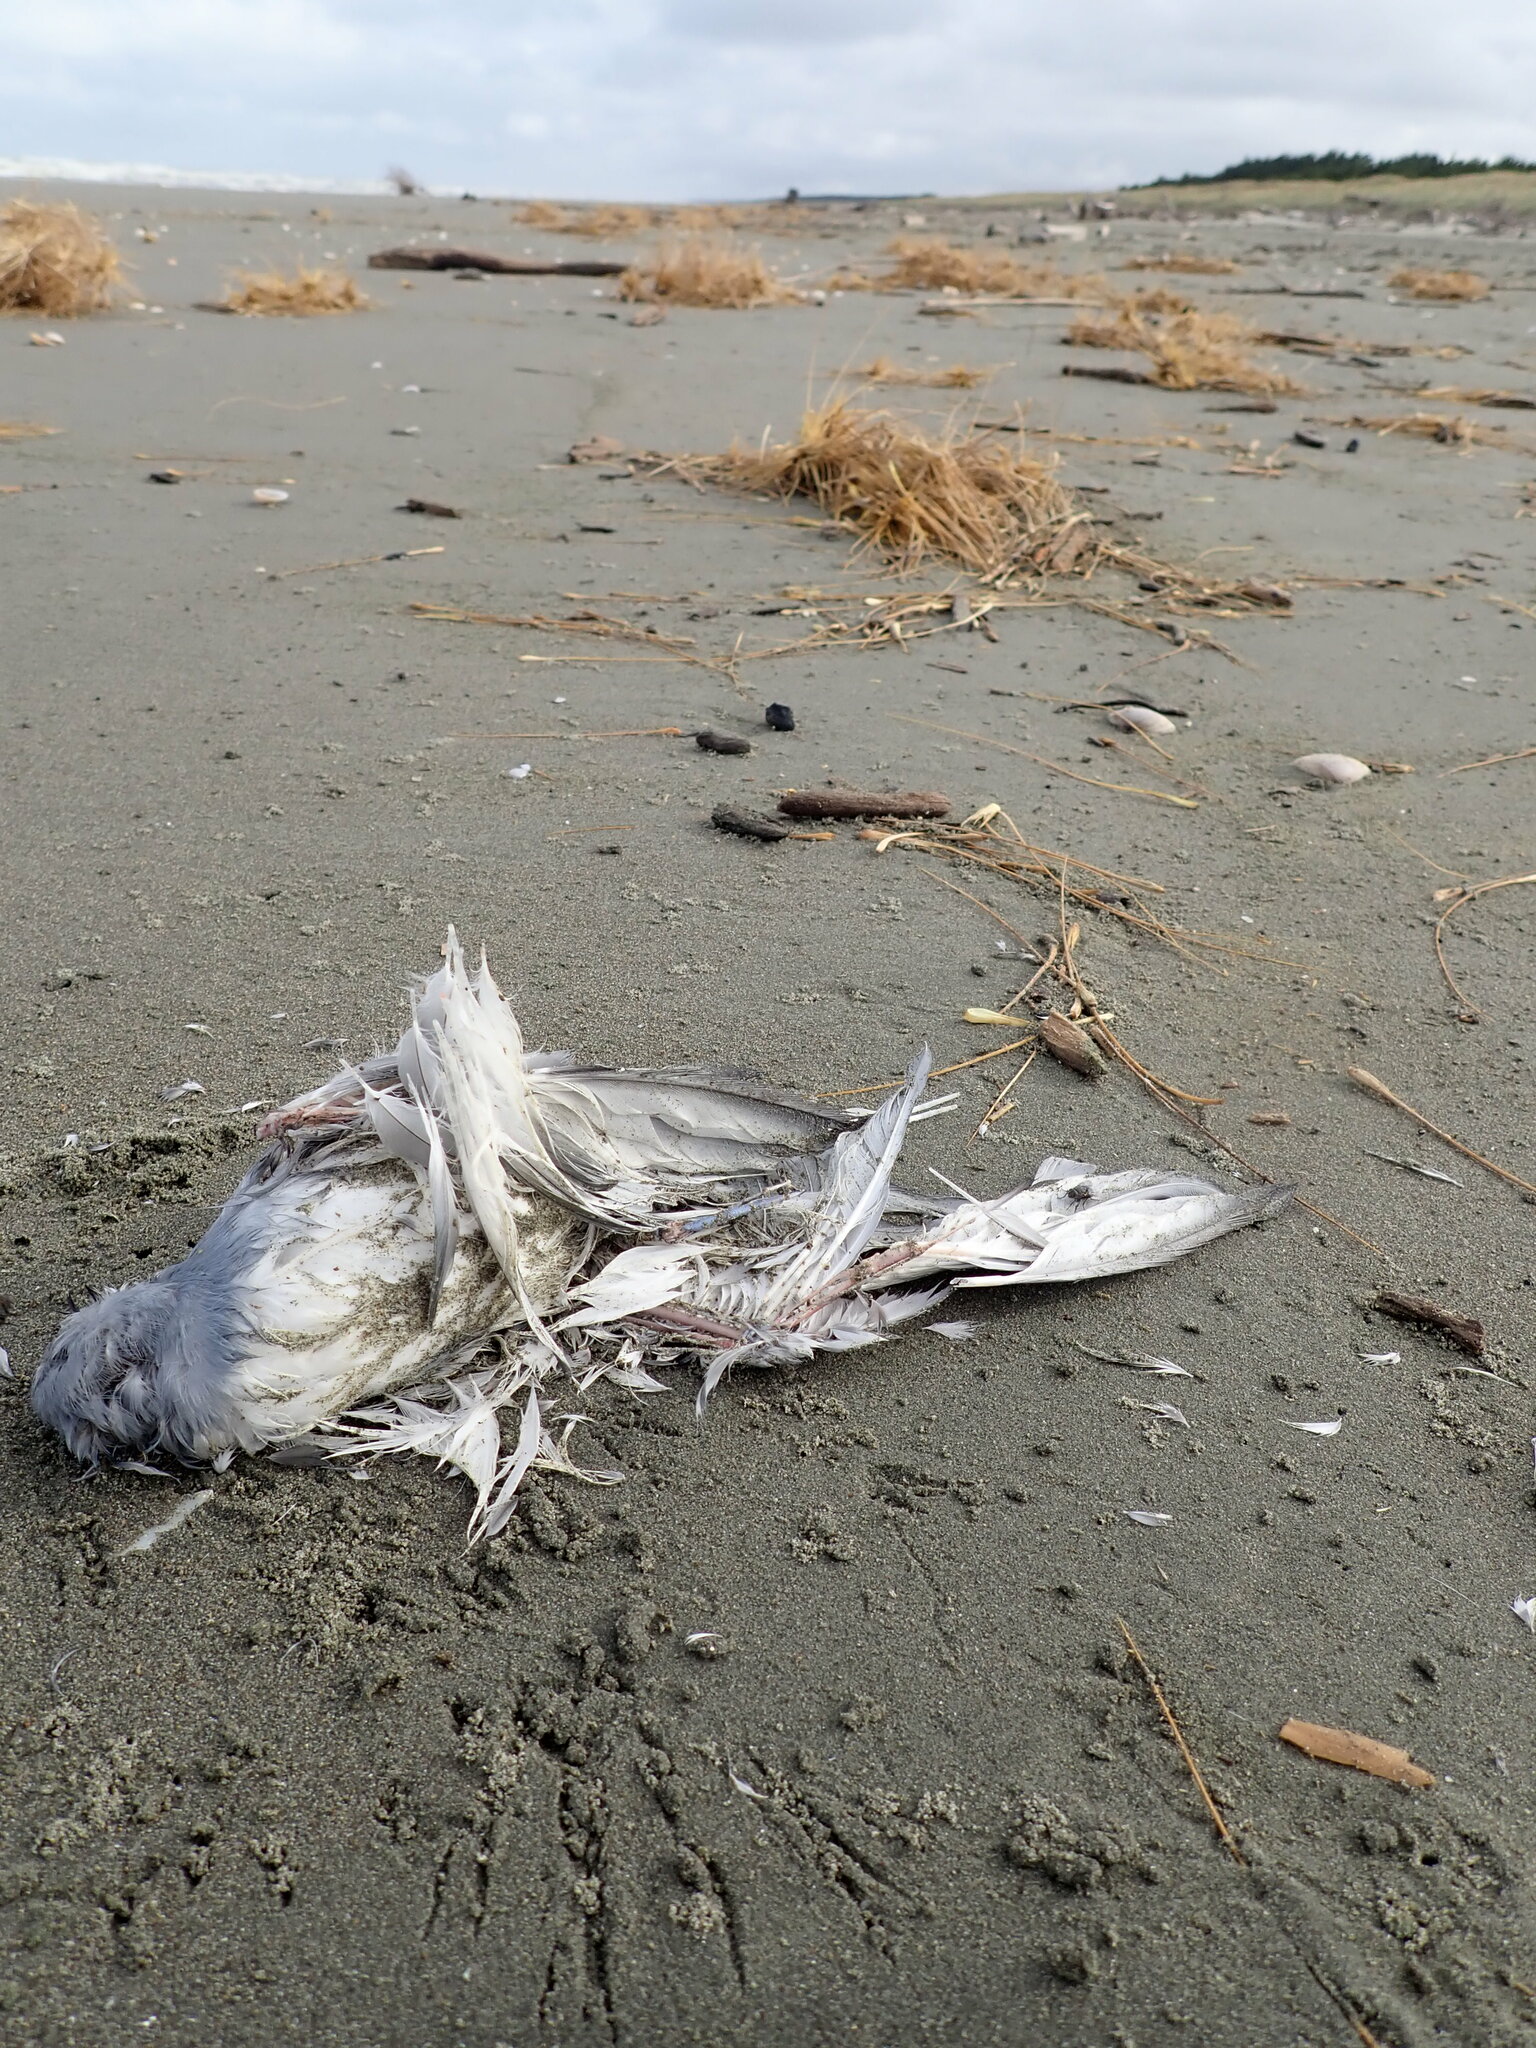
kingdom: Animalia
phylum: Chordata
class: Aves
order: Procellariiformes
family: Procellariidae
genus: Pachyptila
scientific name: Pachyptila turtur
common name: Fairy prion
